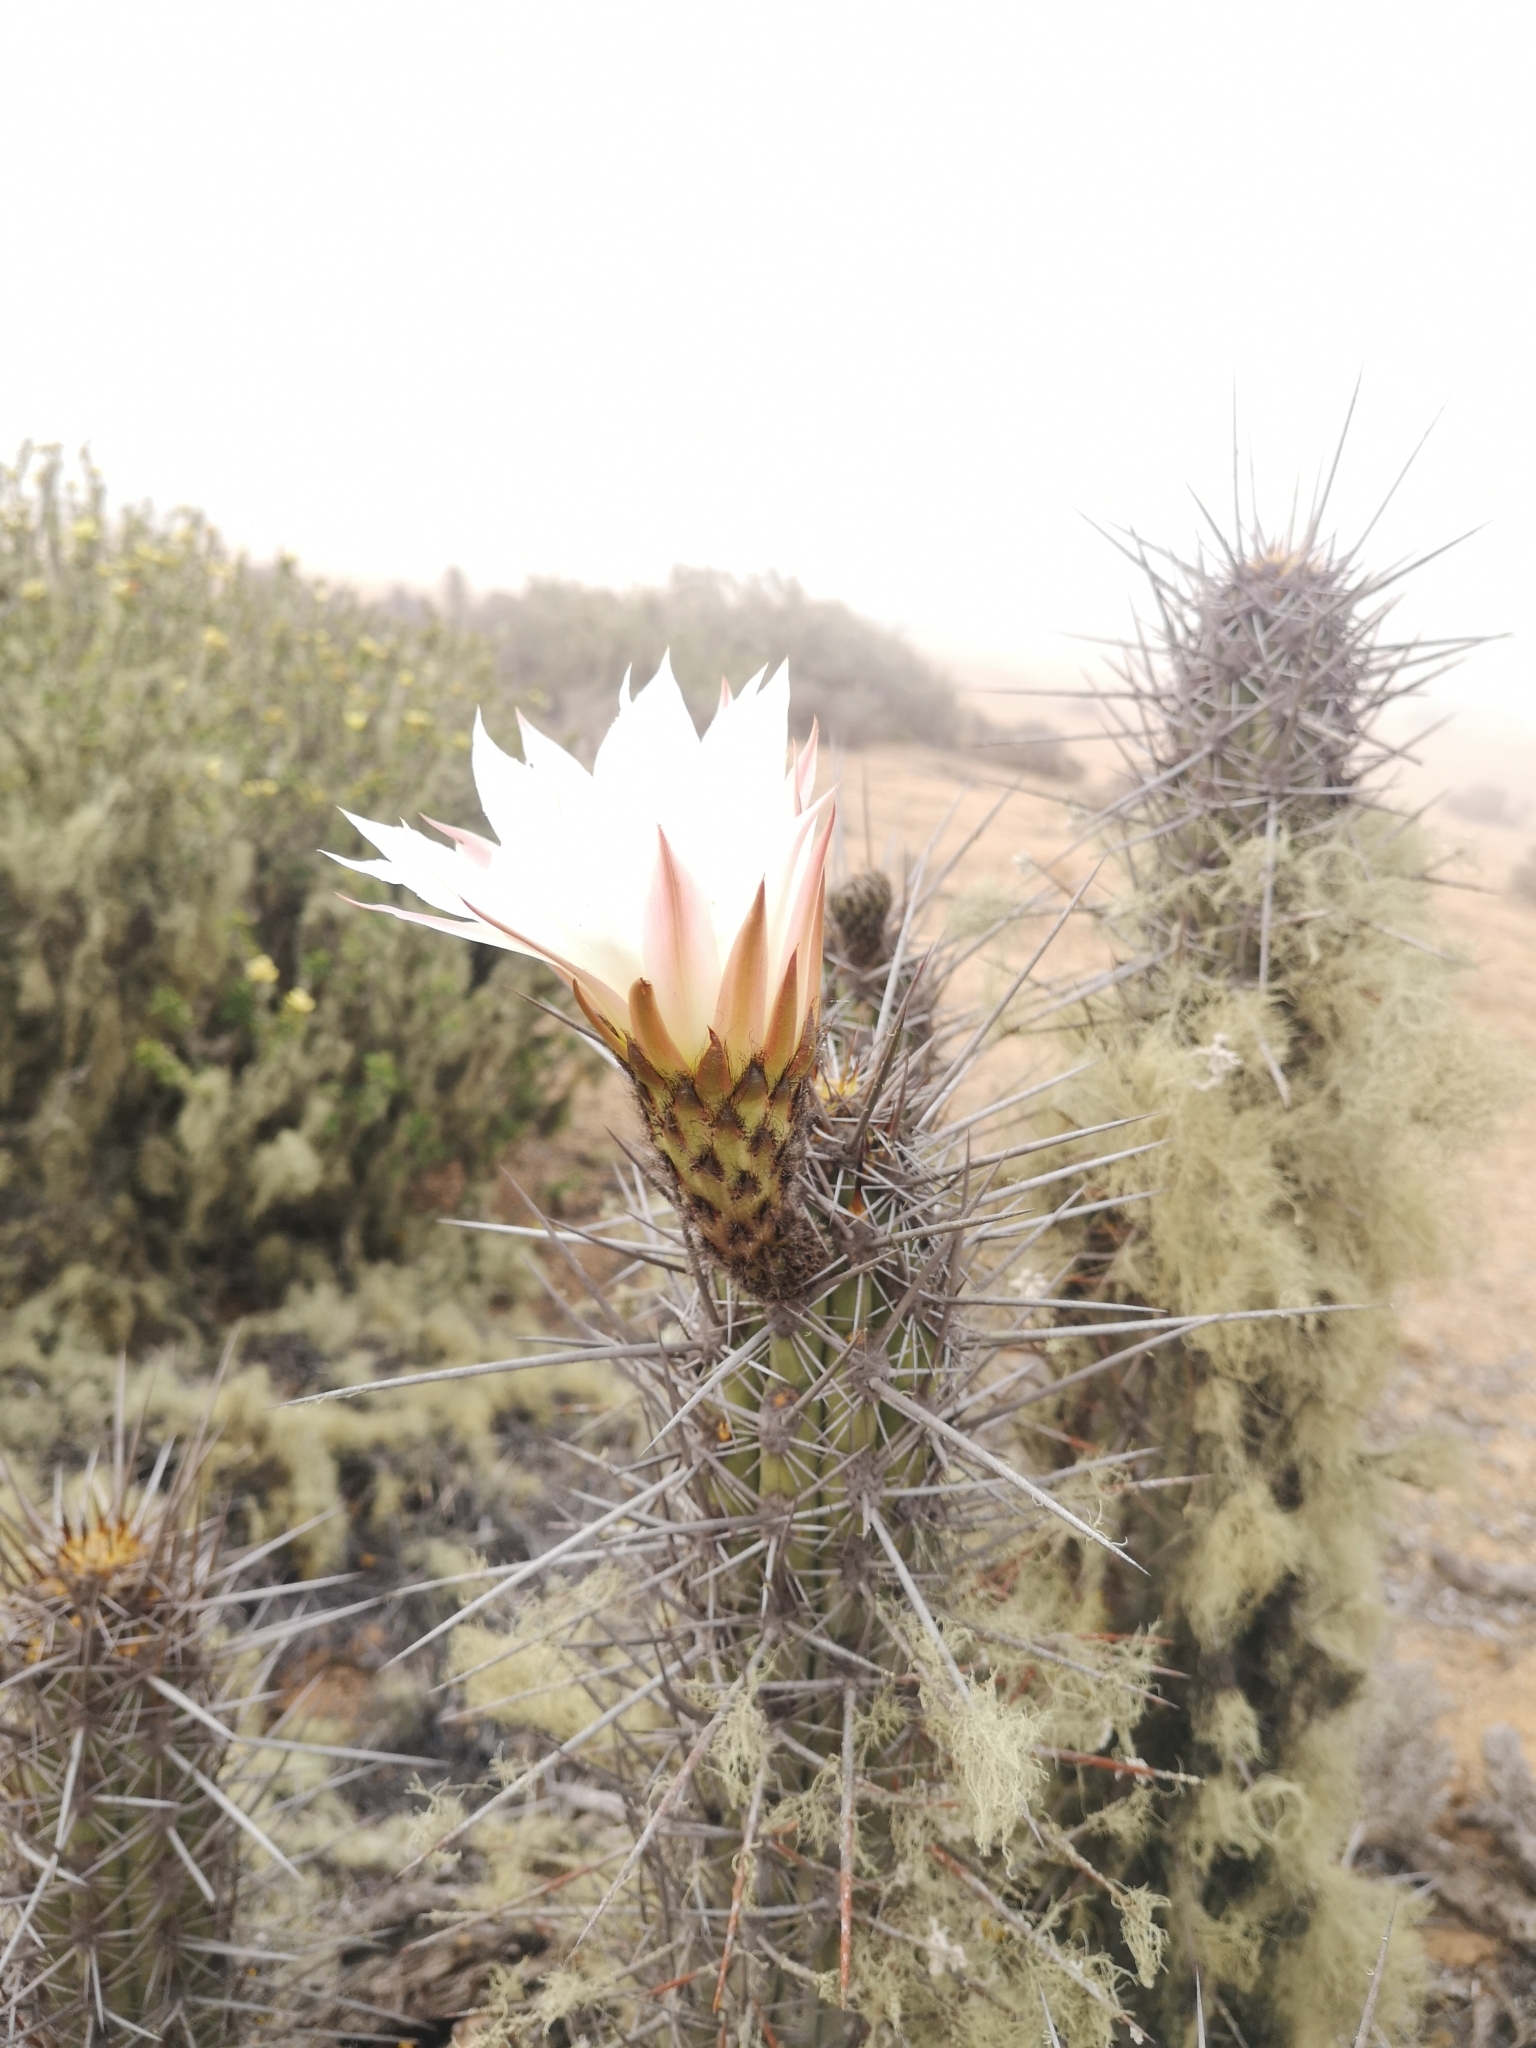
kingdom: Plantae
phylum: Tracheophyta
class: Magnoliopsida
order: Caryophyllales
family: Cactaceae
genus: Leucostele
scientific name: Leucostele deserticola
